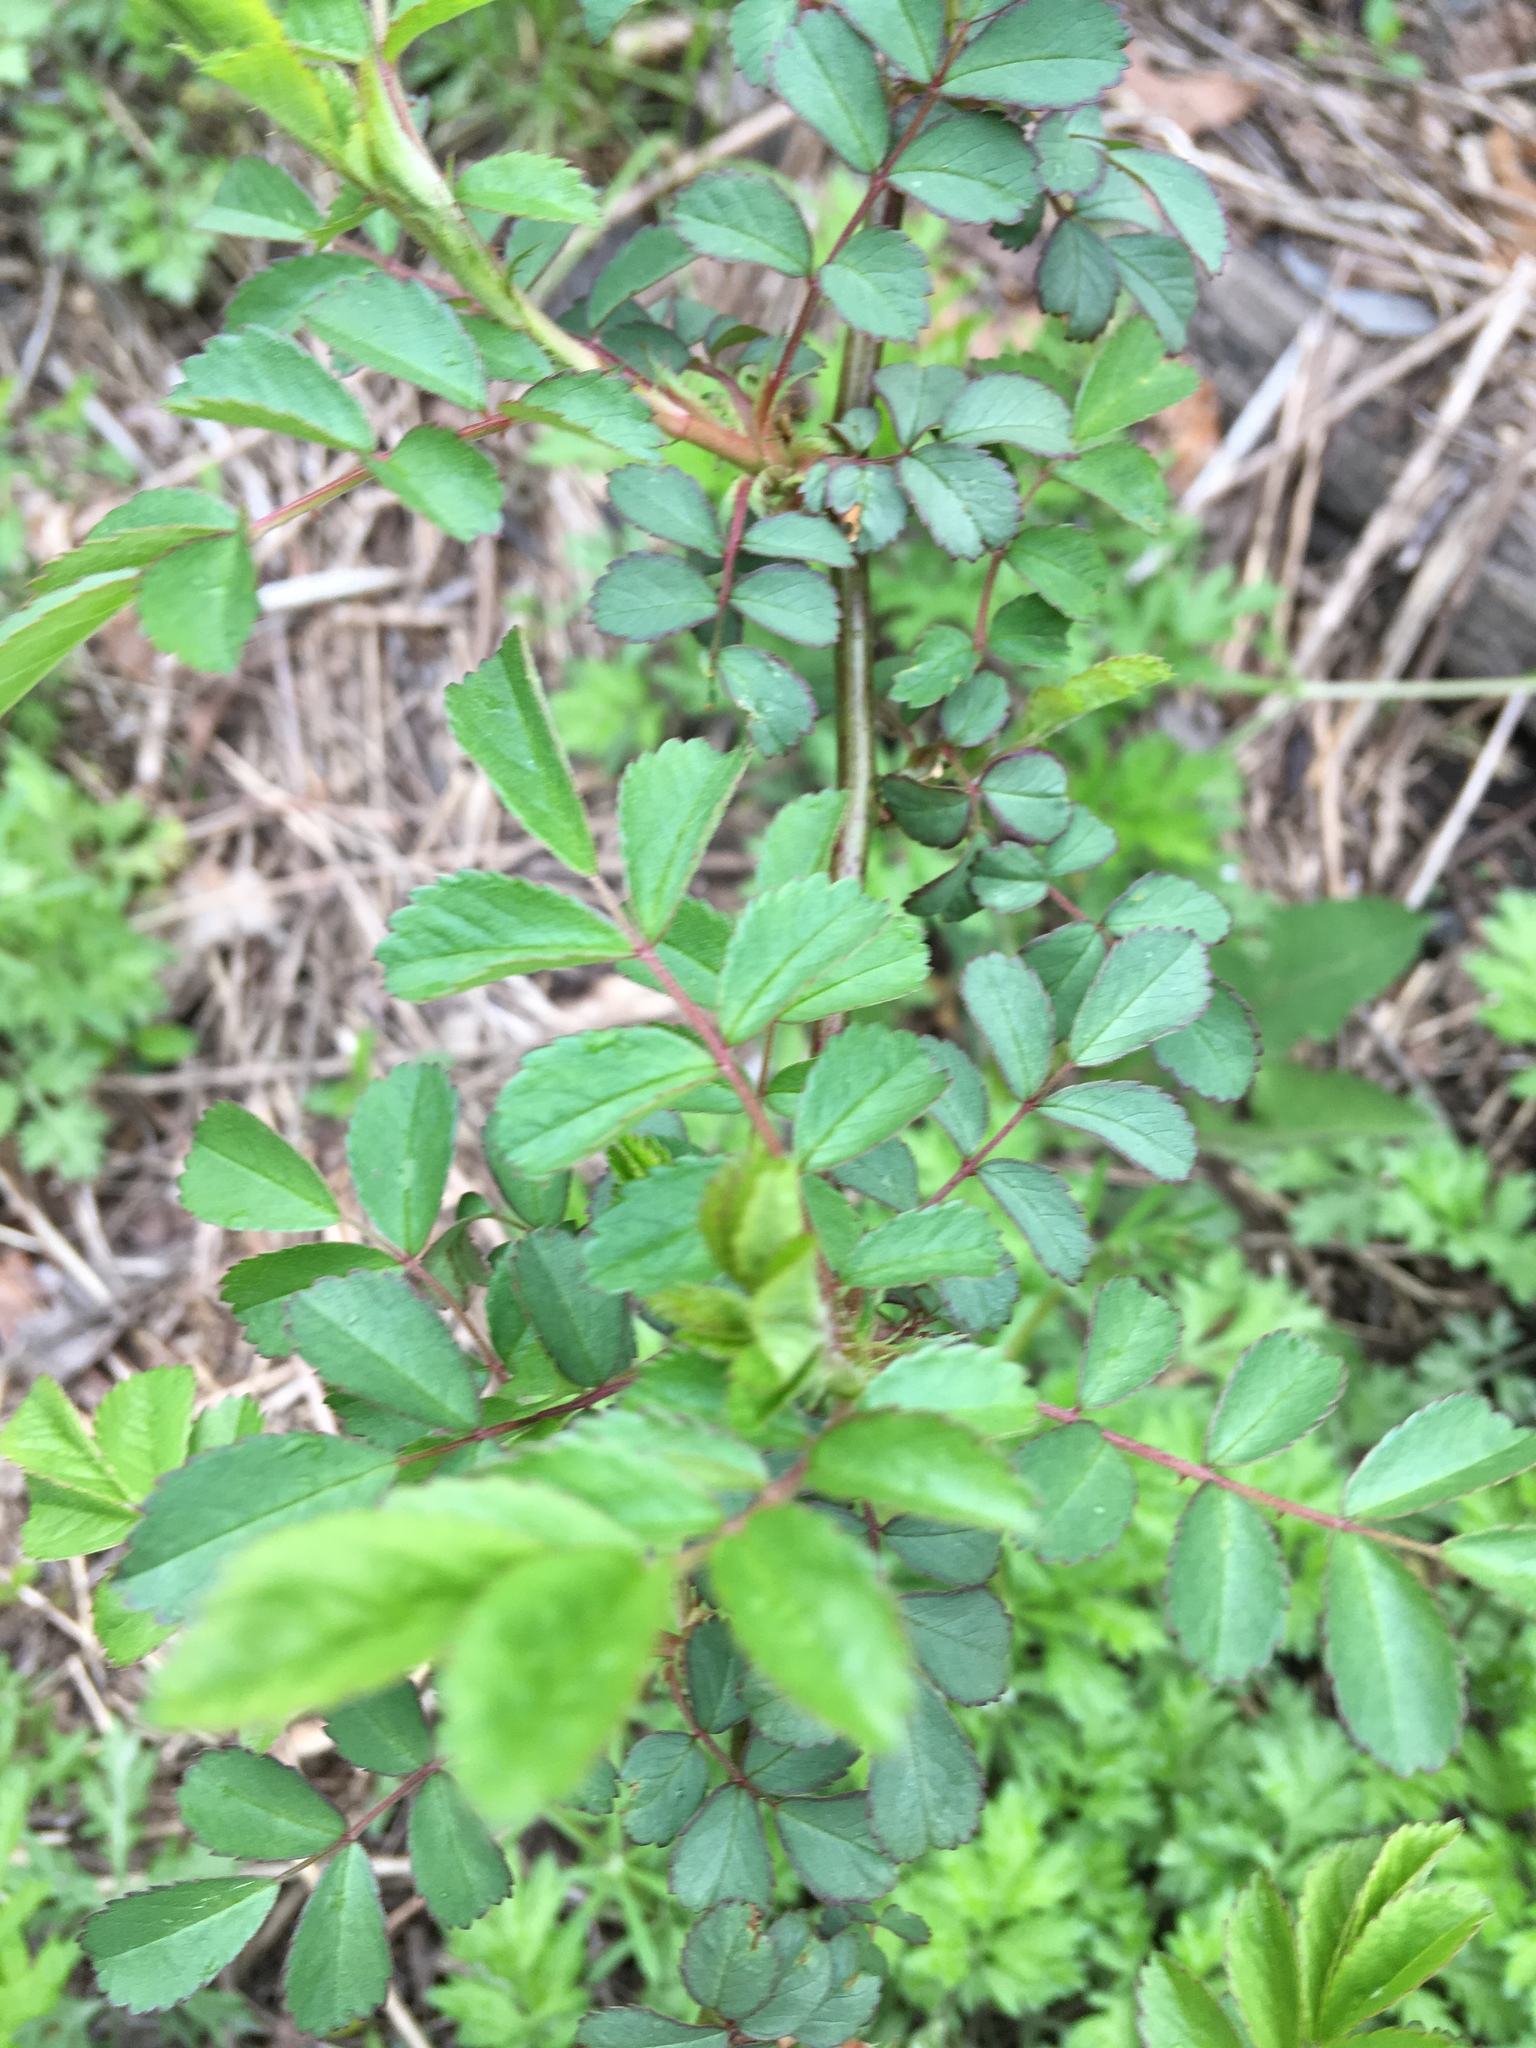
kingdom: Plantae
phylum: Tracheophyta
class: Magnoliopsida
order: Rosales
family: Rosaceae
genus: Rosa
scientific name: Rosa multiflora
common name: Multiflora rose
